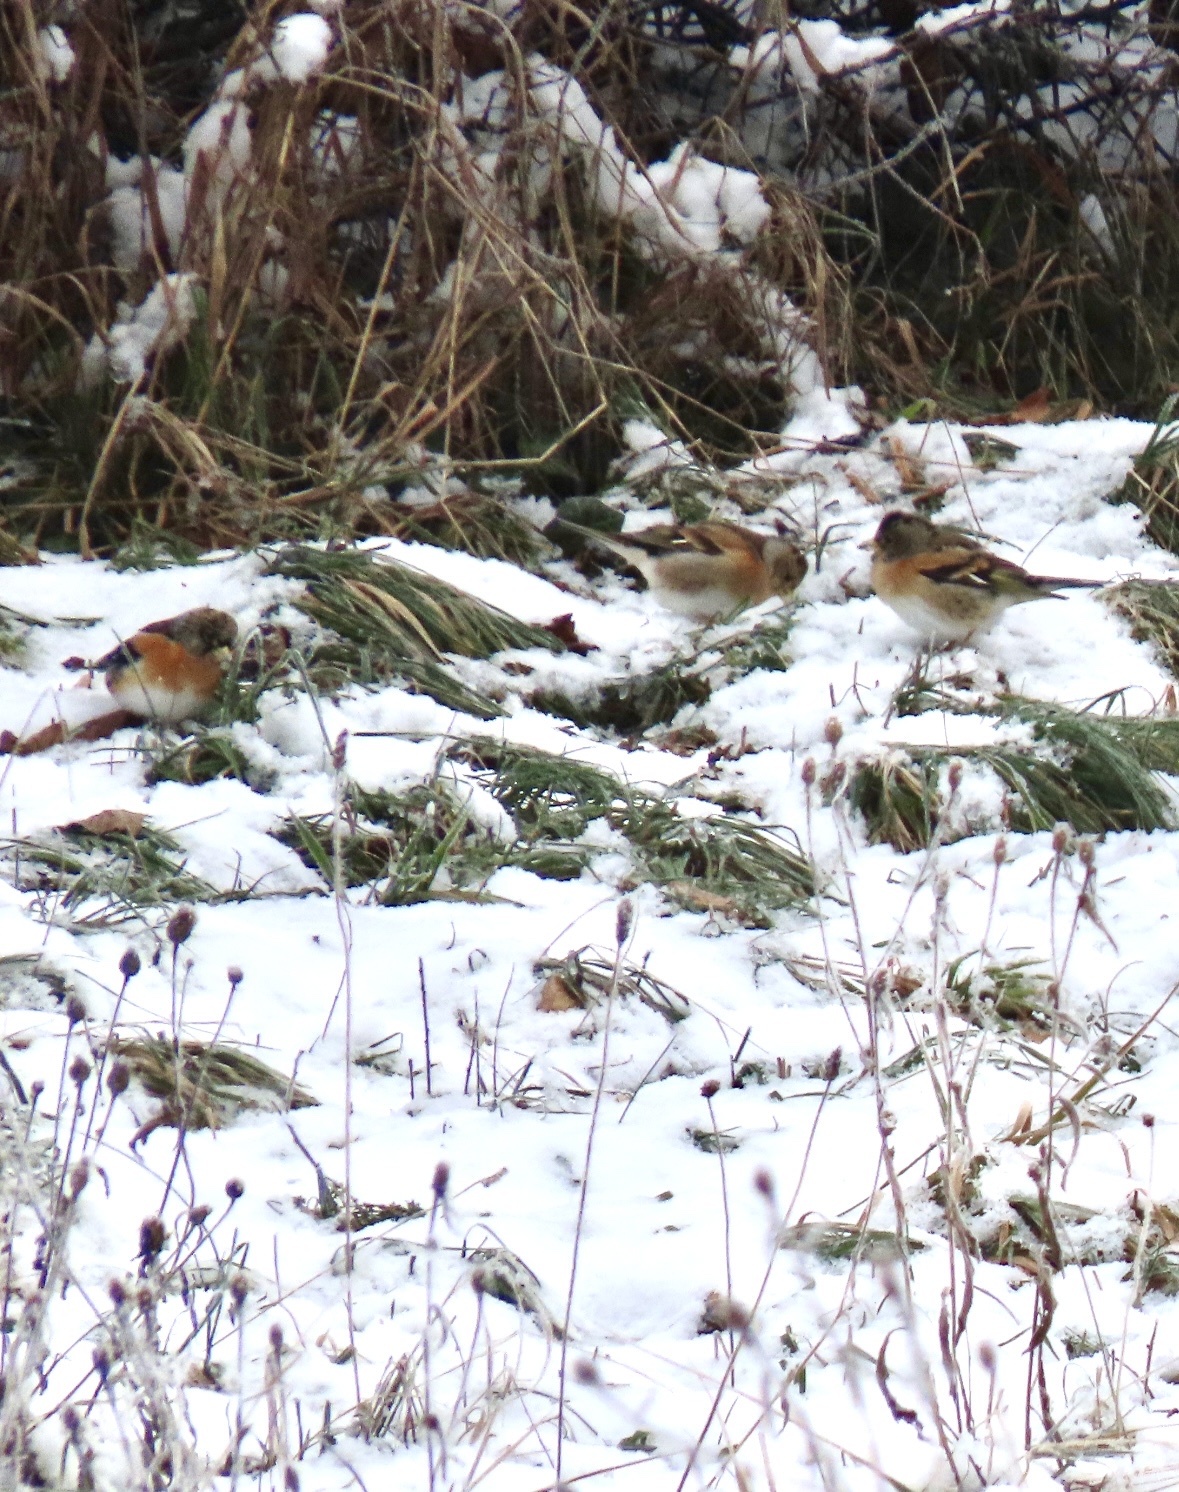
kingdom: Animalia
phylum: Chordata
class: Aves
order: Passeriformes
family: Fringillidae
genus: Fringilla
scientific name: Fringilla montifringilla
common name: Brambling
